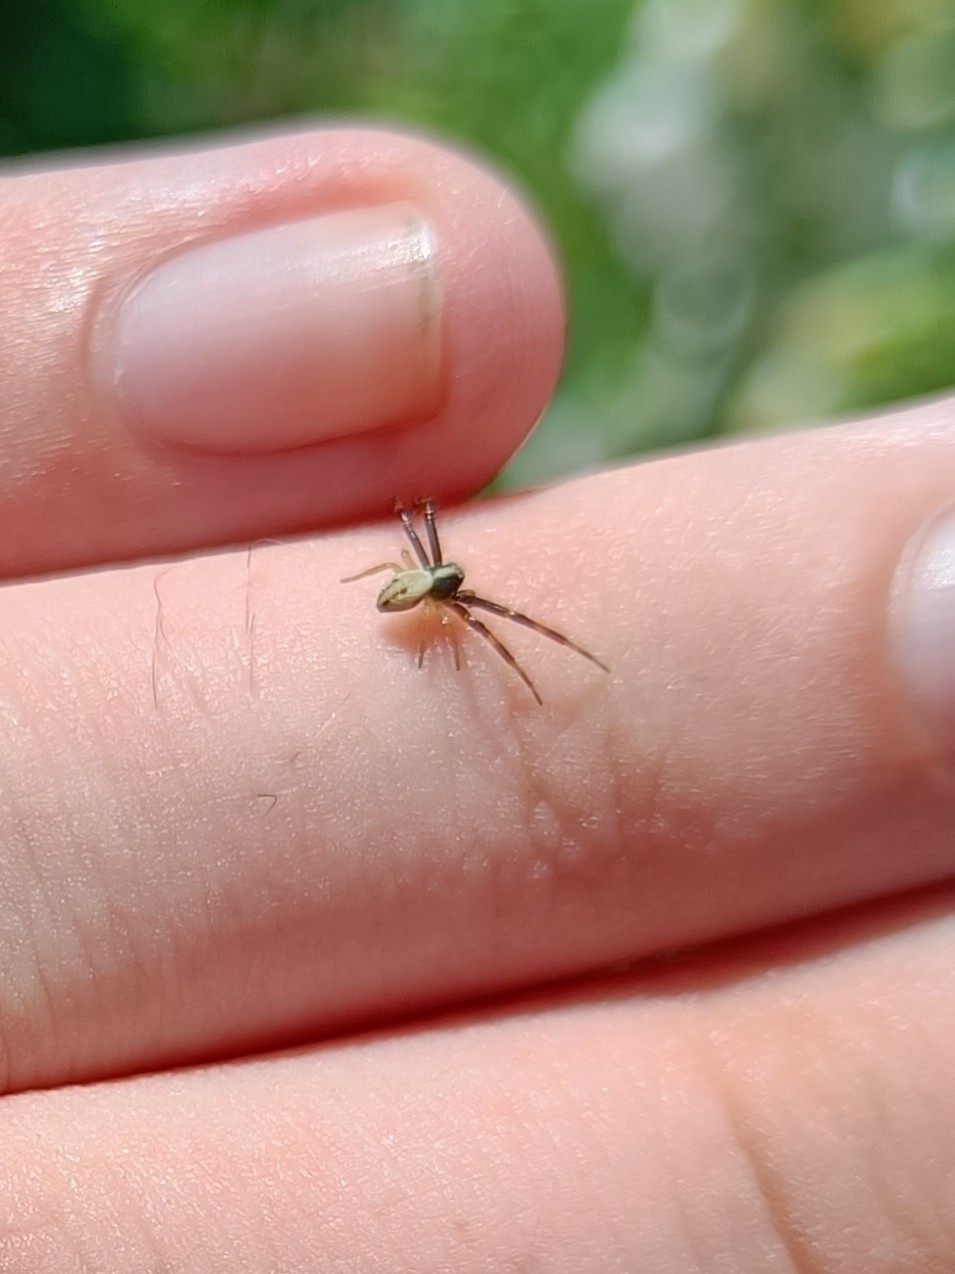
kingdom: Animalia
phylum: Arthropoda
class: Arachnida
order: Araneae
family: Thomisidae
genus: Misumena
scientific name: Misumena vatia
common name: Goldenrod crab spider
